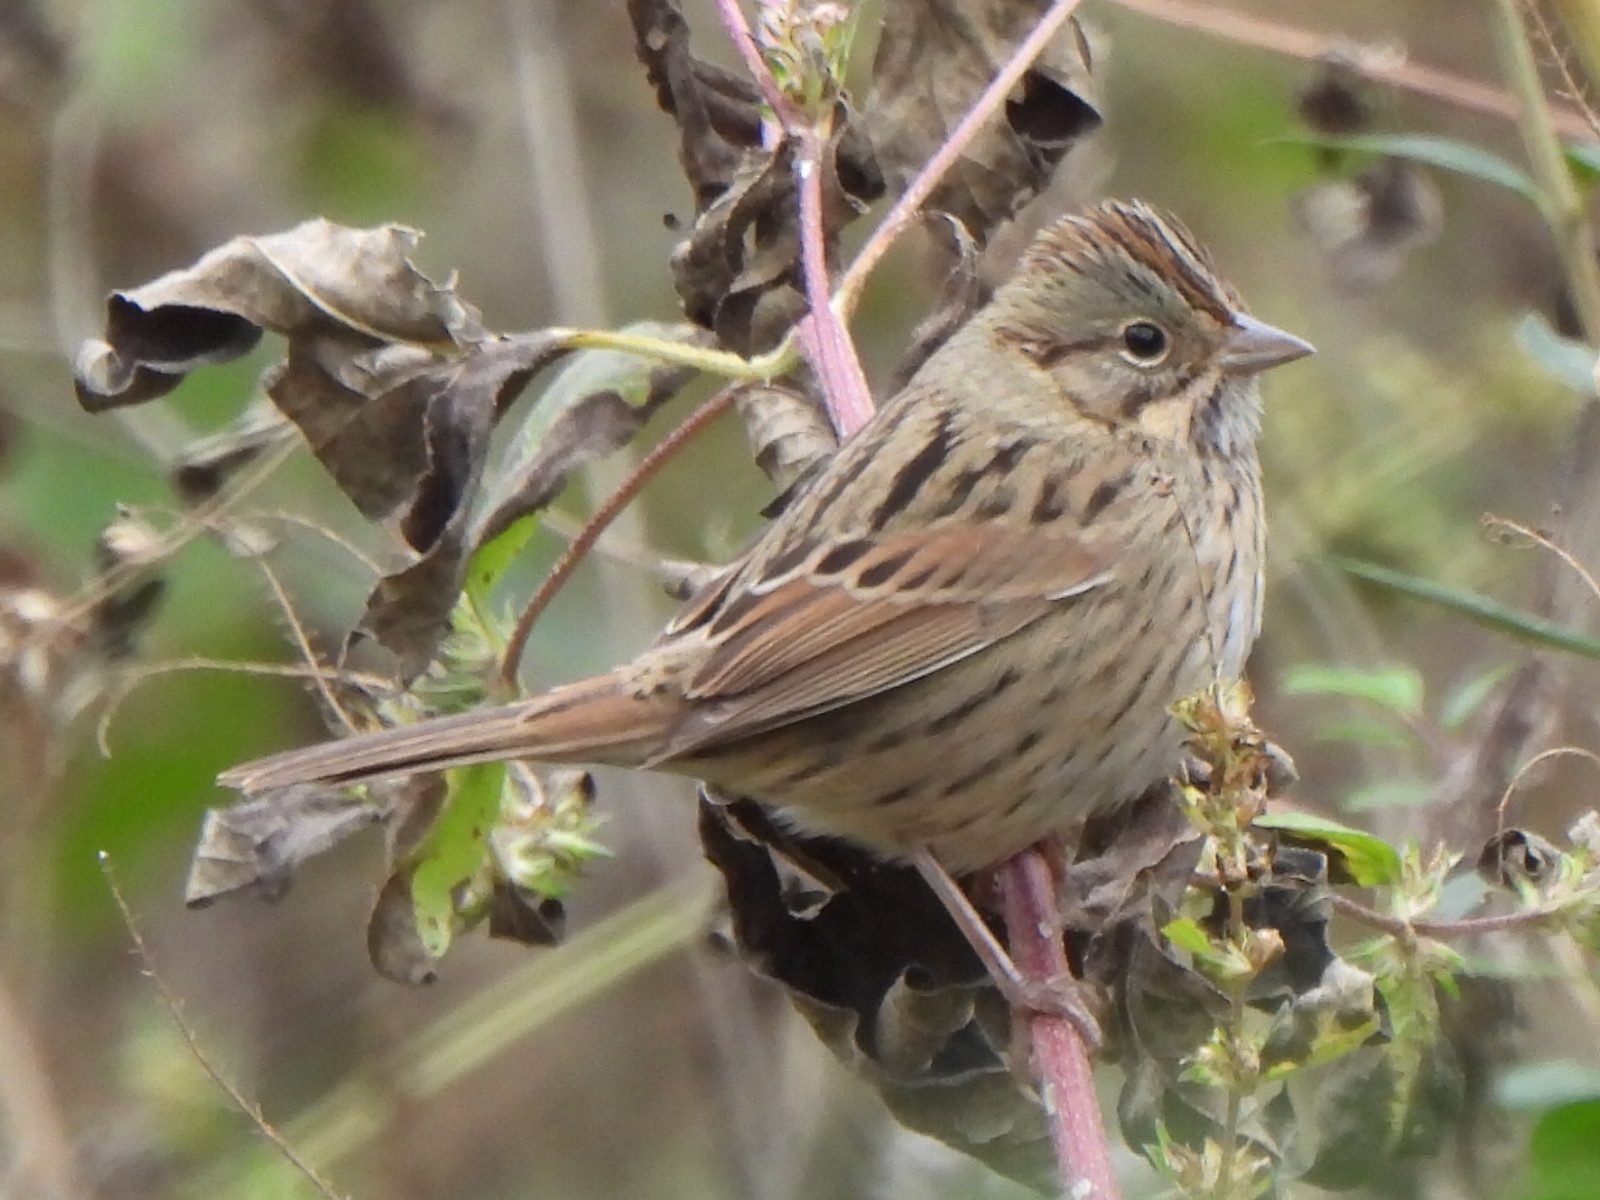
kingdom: Animalia
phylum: Chordata
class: Aves
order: Passeriformes
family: Passerellidae
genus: Melospiza
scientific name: Melospiza lincolnii
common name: Lincoln's sparrow
